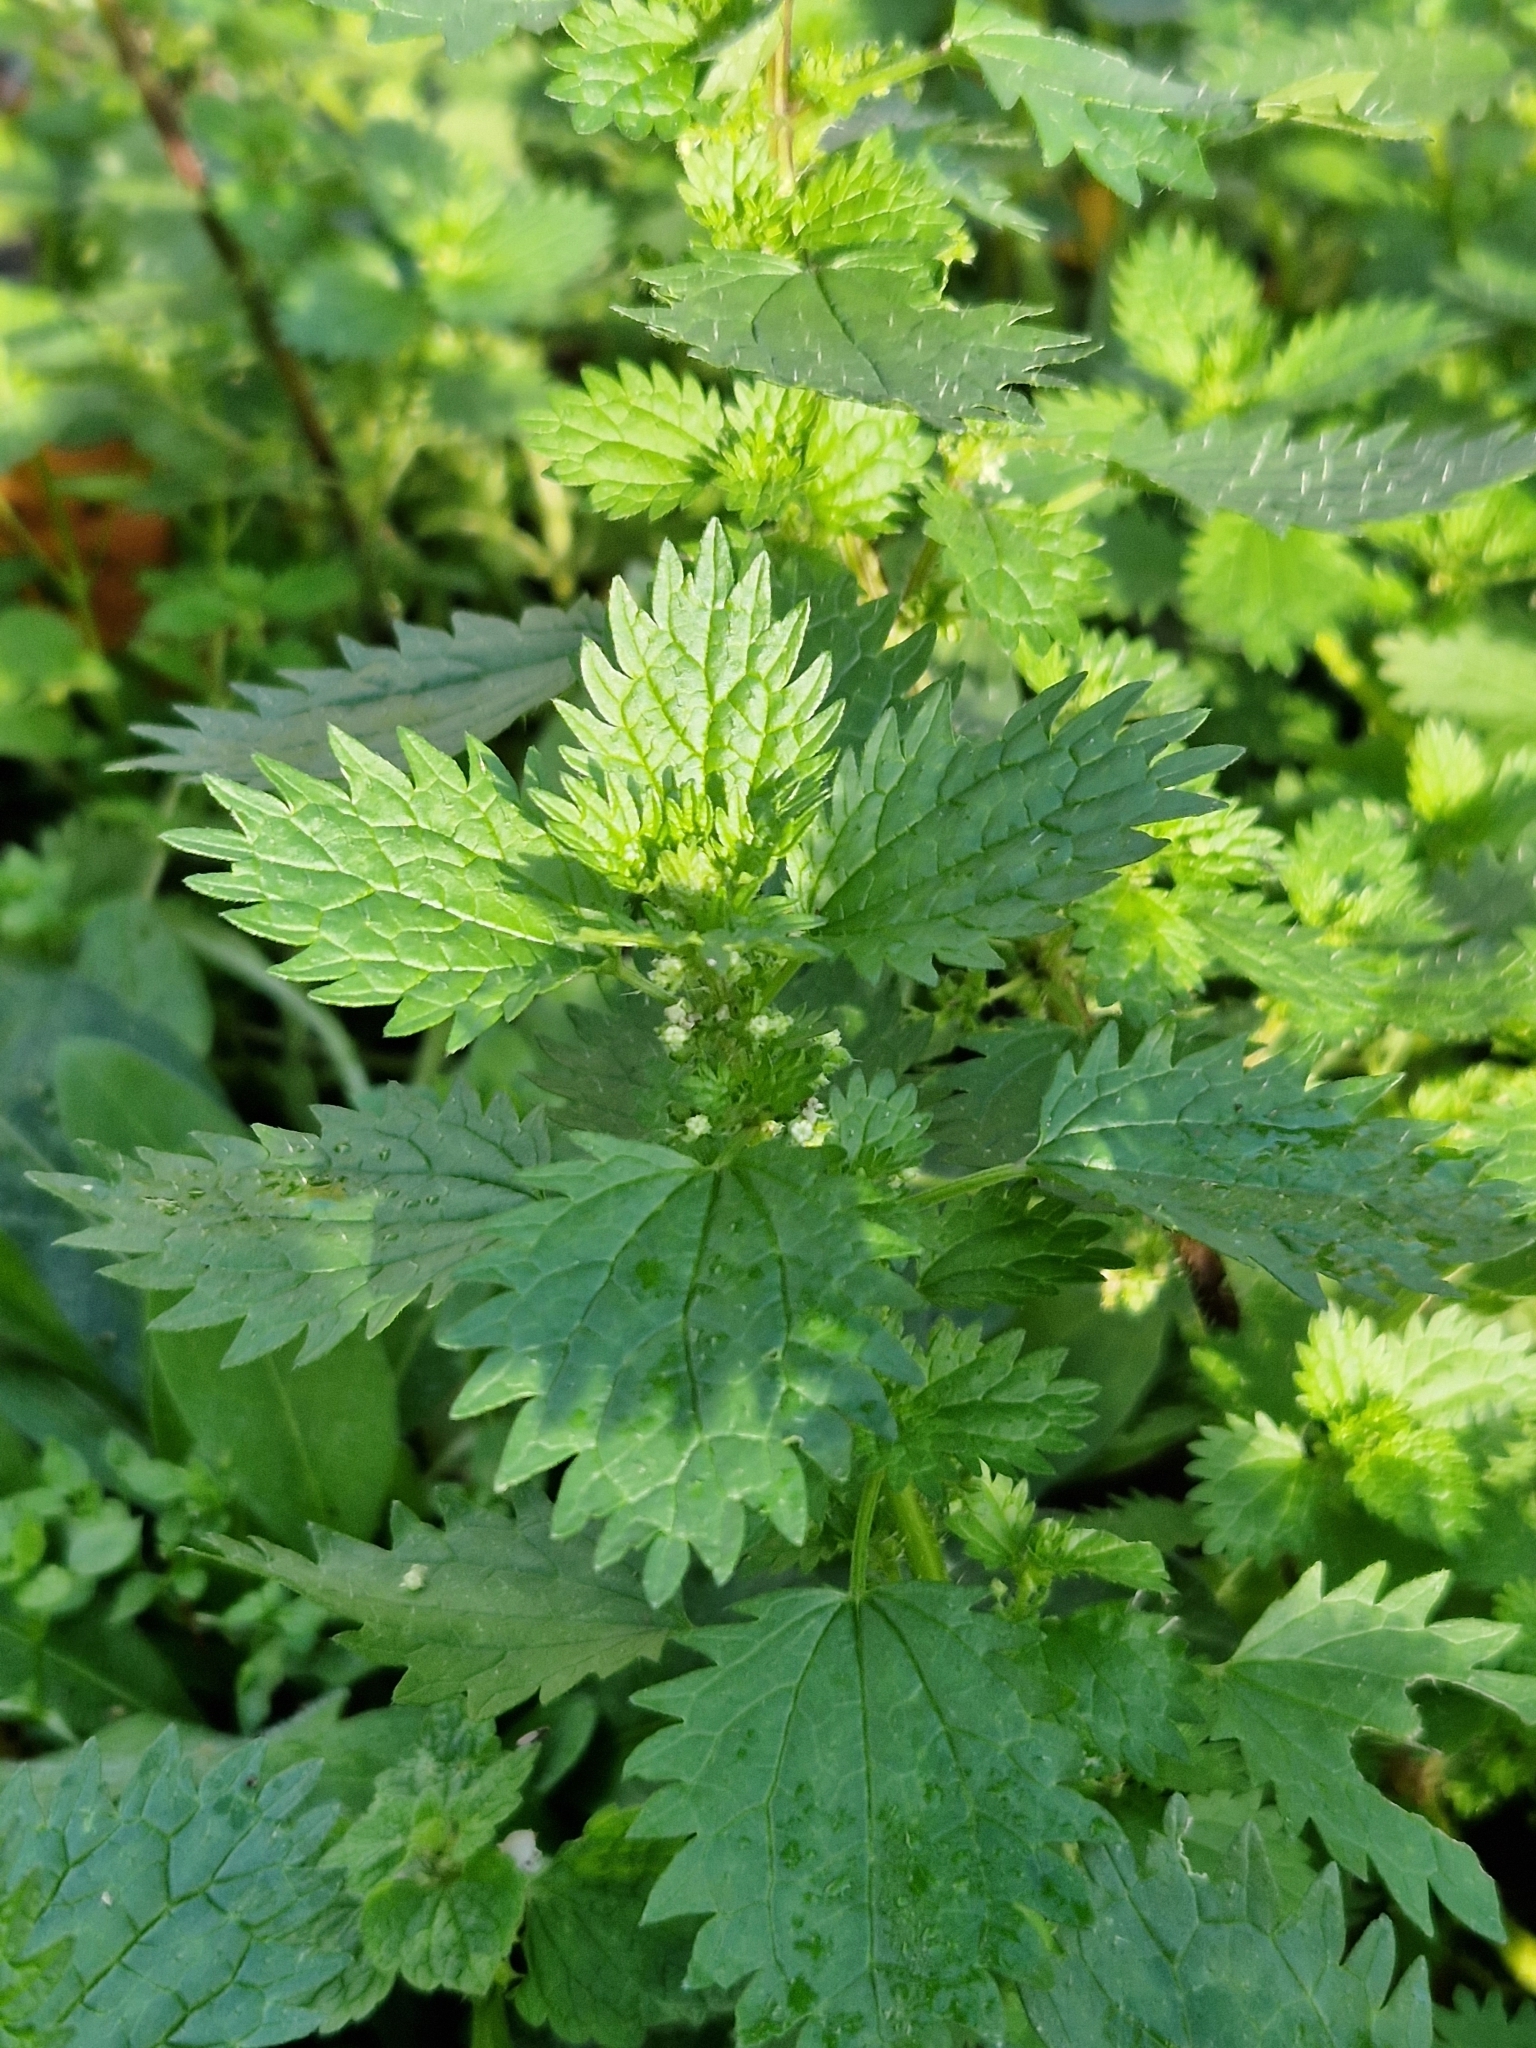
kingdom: Plantae
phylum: Tracheophyta
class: Magnoliopsida
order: Rosales
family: Urticaceae
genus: Urtica
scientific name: Urtica urens
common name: Dwarf nettle
